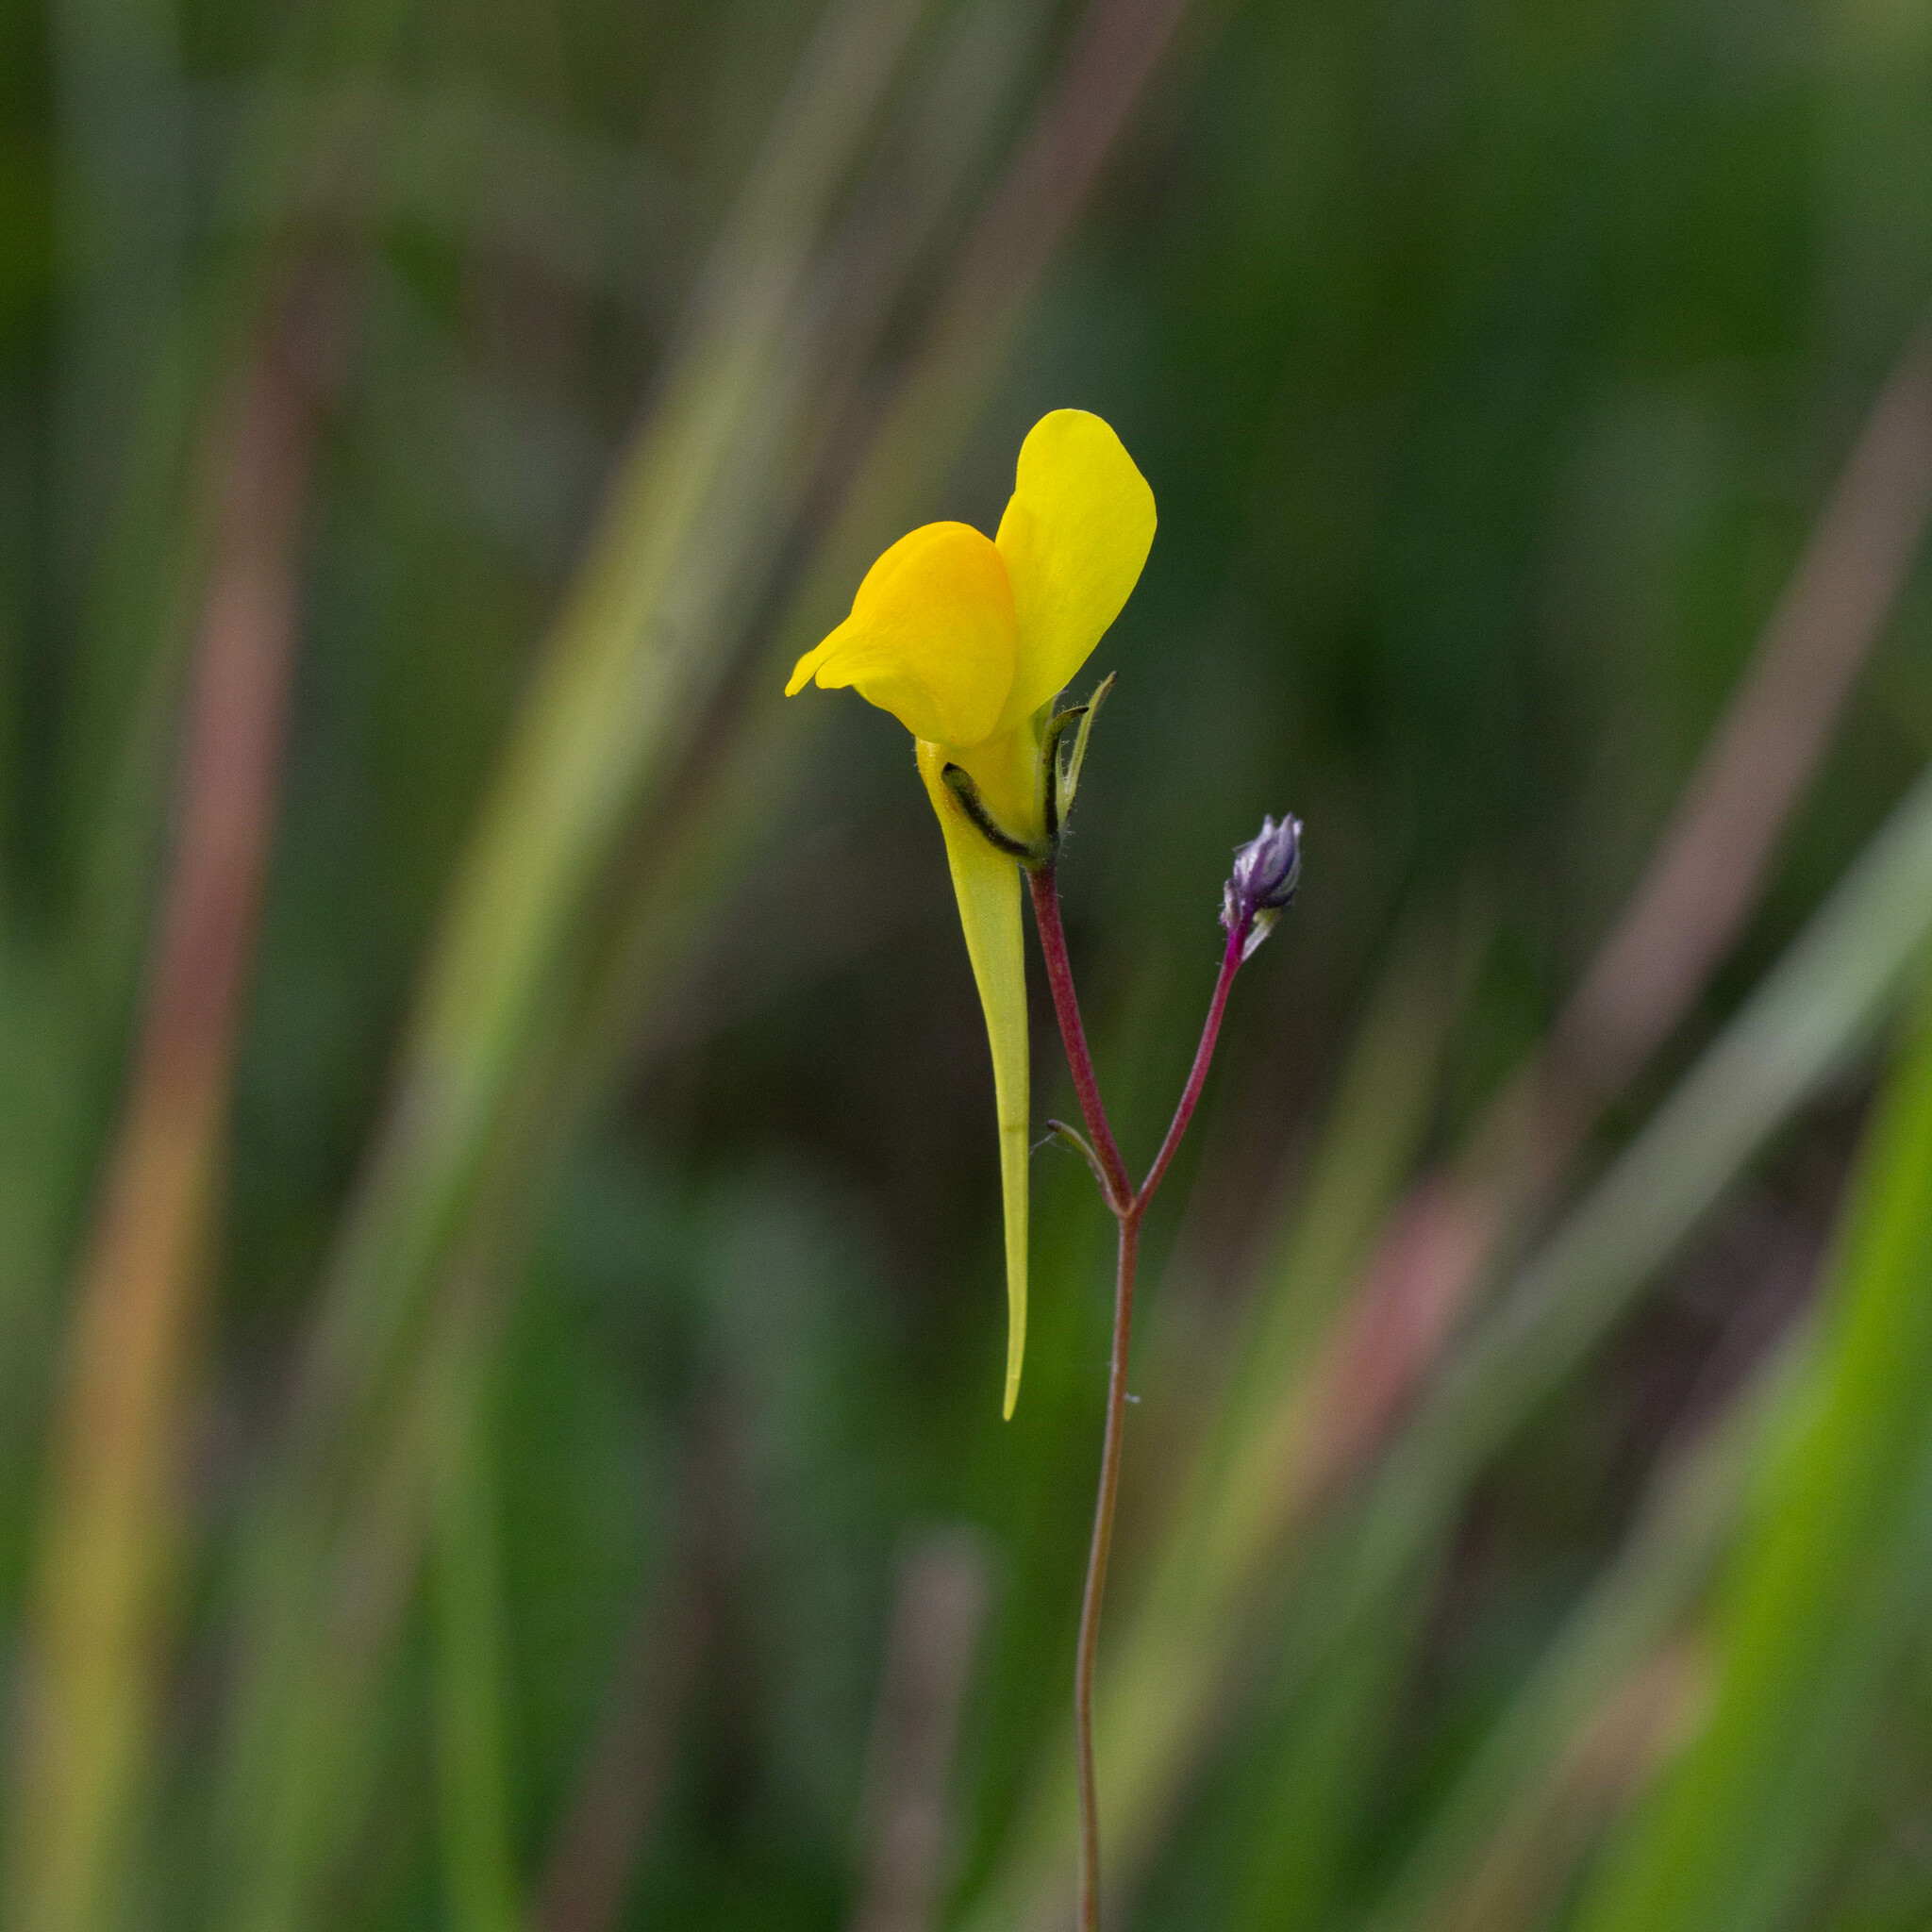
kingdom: Plantae
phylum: Tracheophyta
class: Magnoliopsida
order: Lamiales
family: Plantaginaceae
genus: Linaria
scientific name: Linaria spartea
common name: Ballast toadflax
